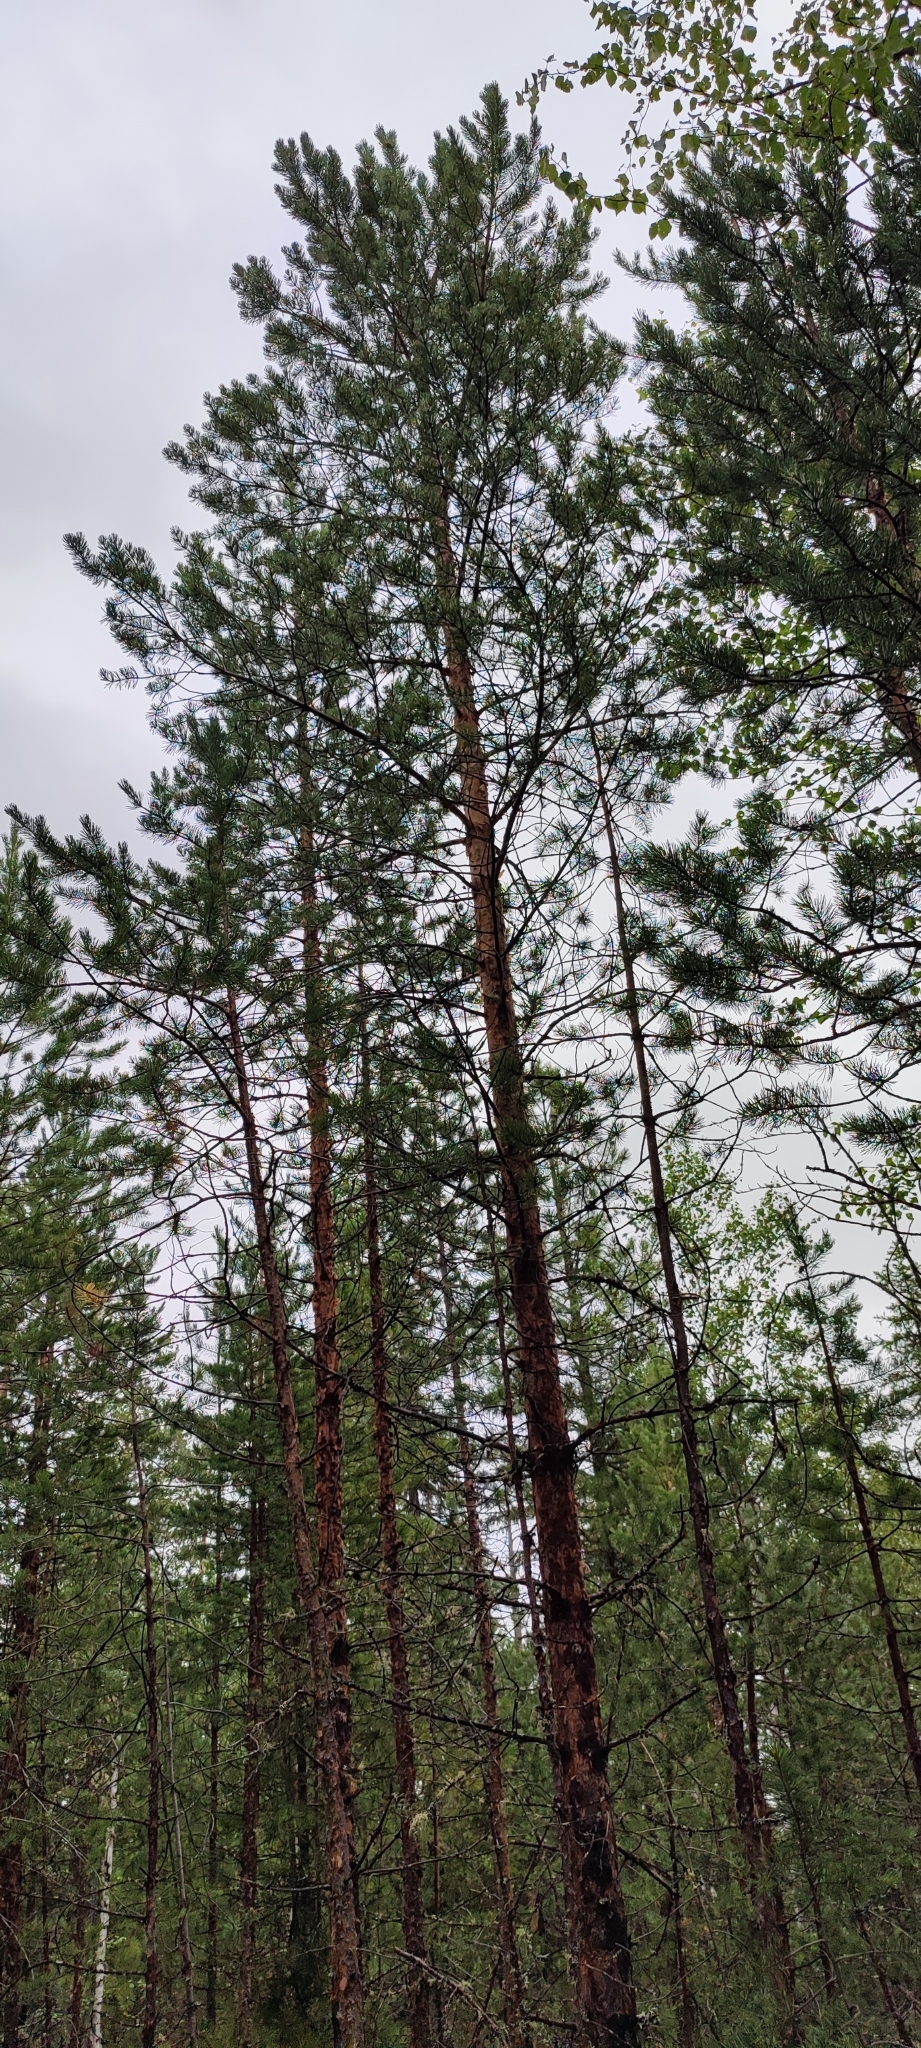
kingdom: Plantae
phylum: Tracheophyta
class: Pinopsida
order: Pinales
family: Pinaceae
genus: Pinus
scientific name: Pinus sylvestris
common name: Scots pine
